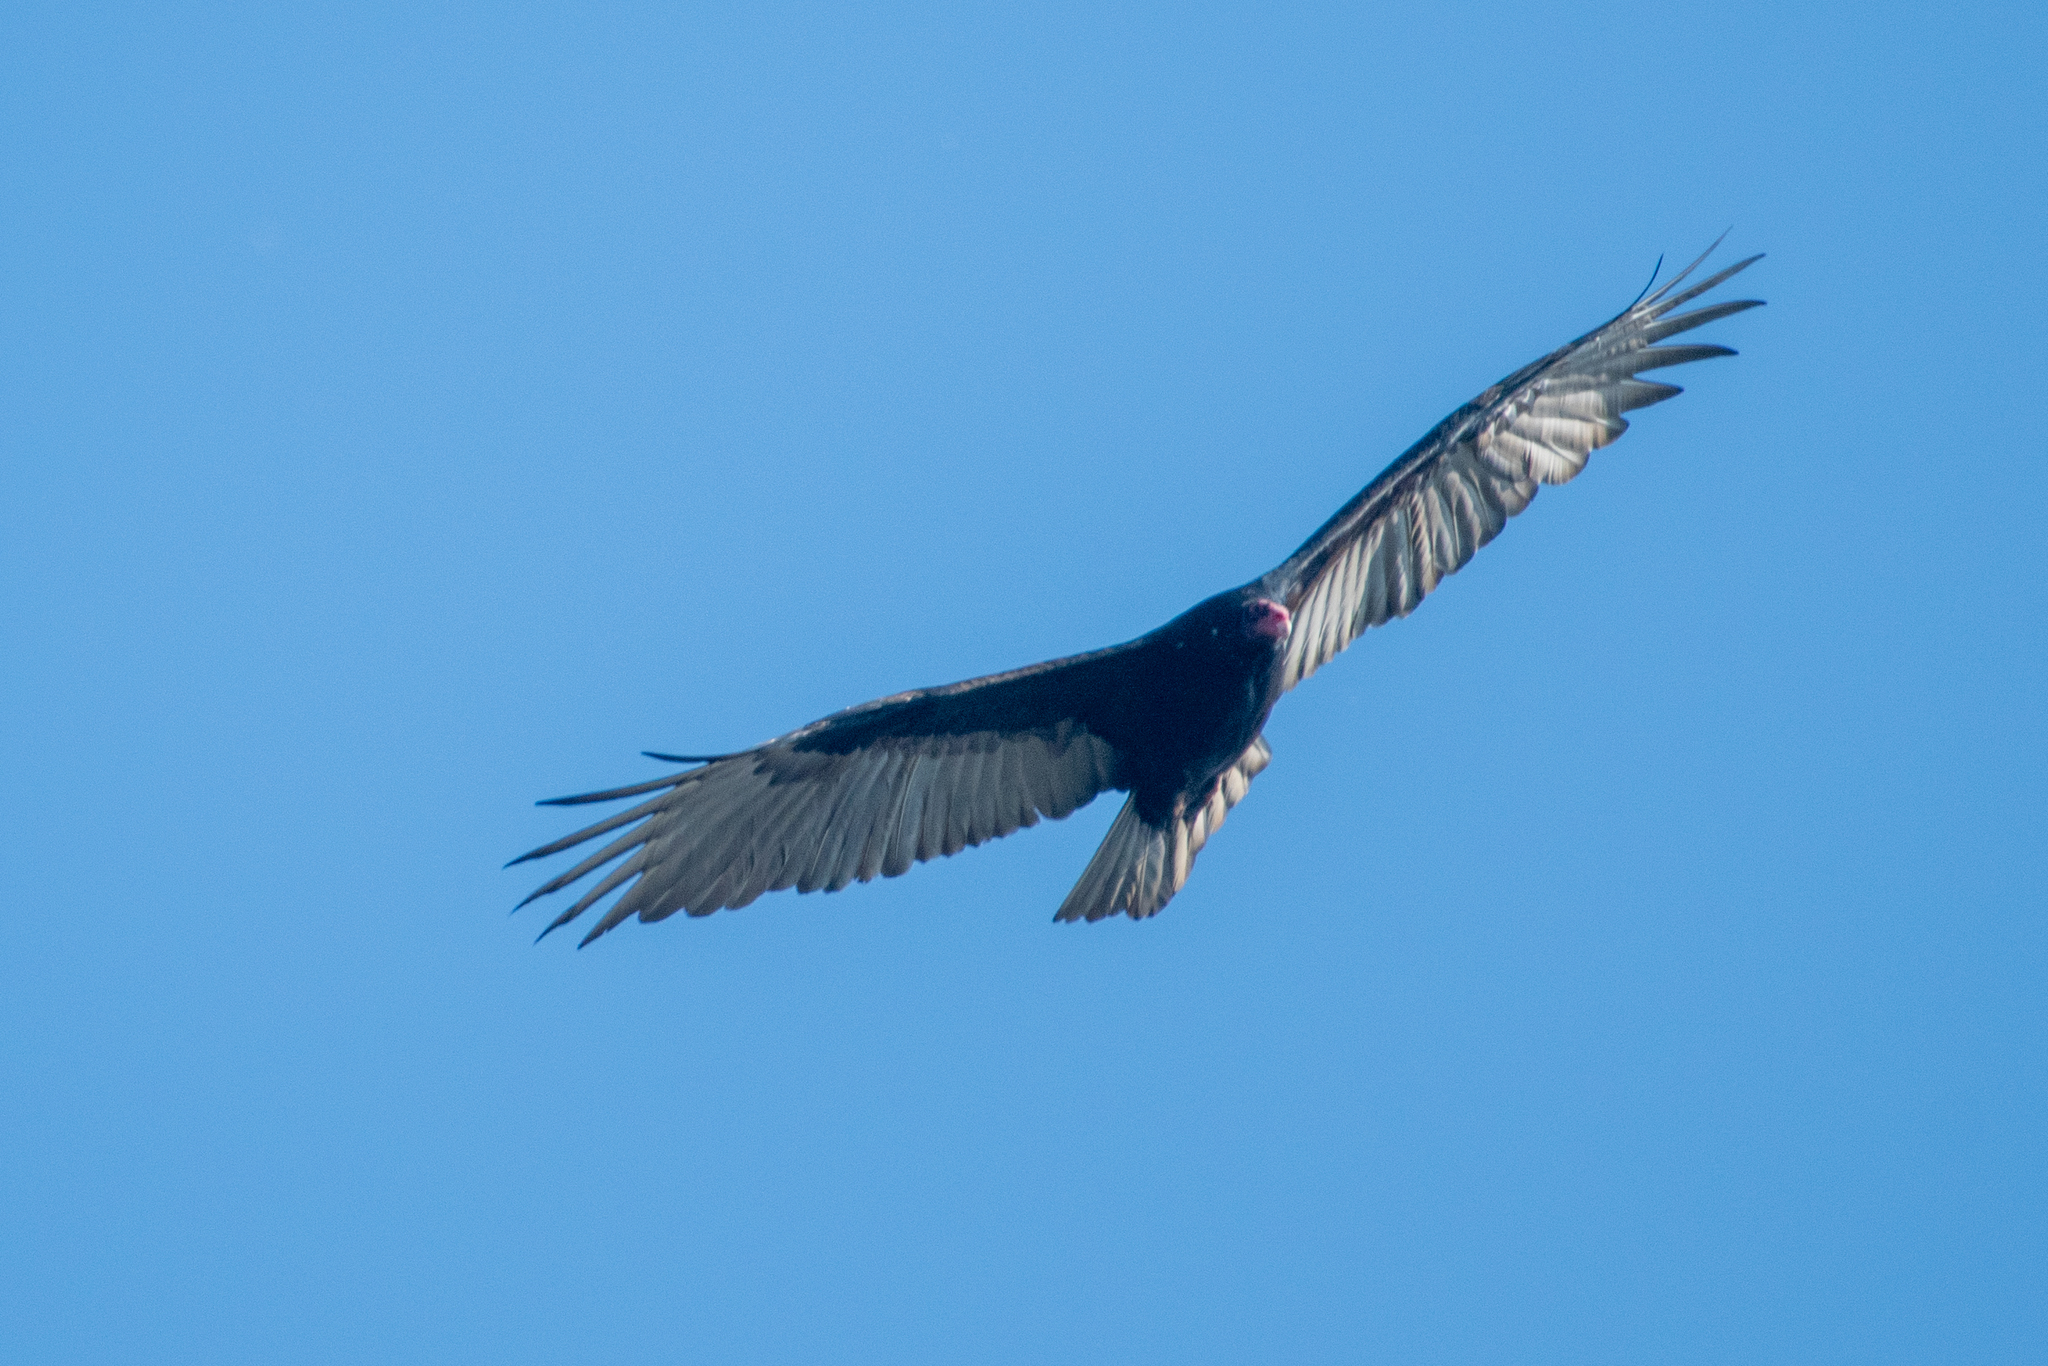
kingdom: Animalia
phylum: Chordata
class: Aves
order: Accipitriformes
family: Cathartidae
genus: Cathartes
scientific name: Cathartes aura
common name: Turkey vulture
